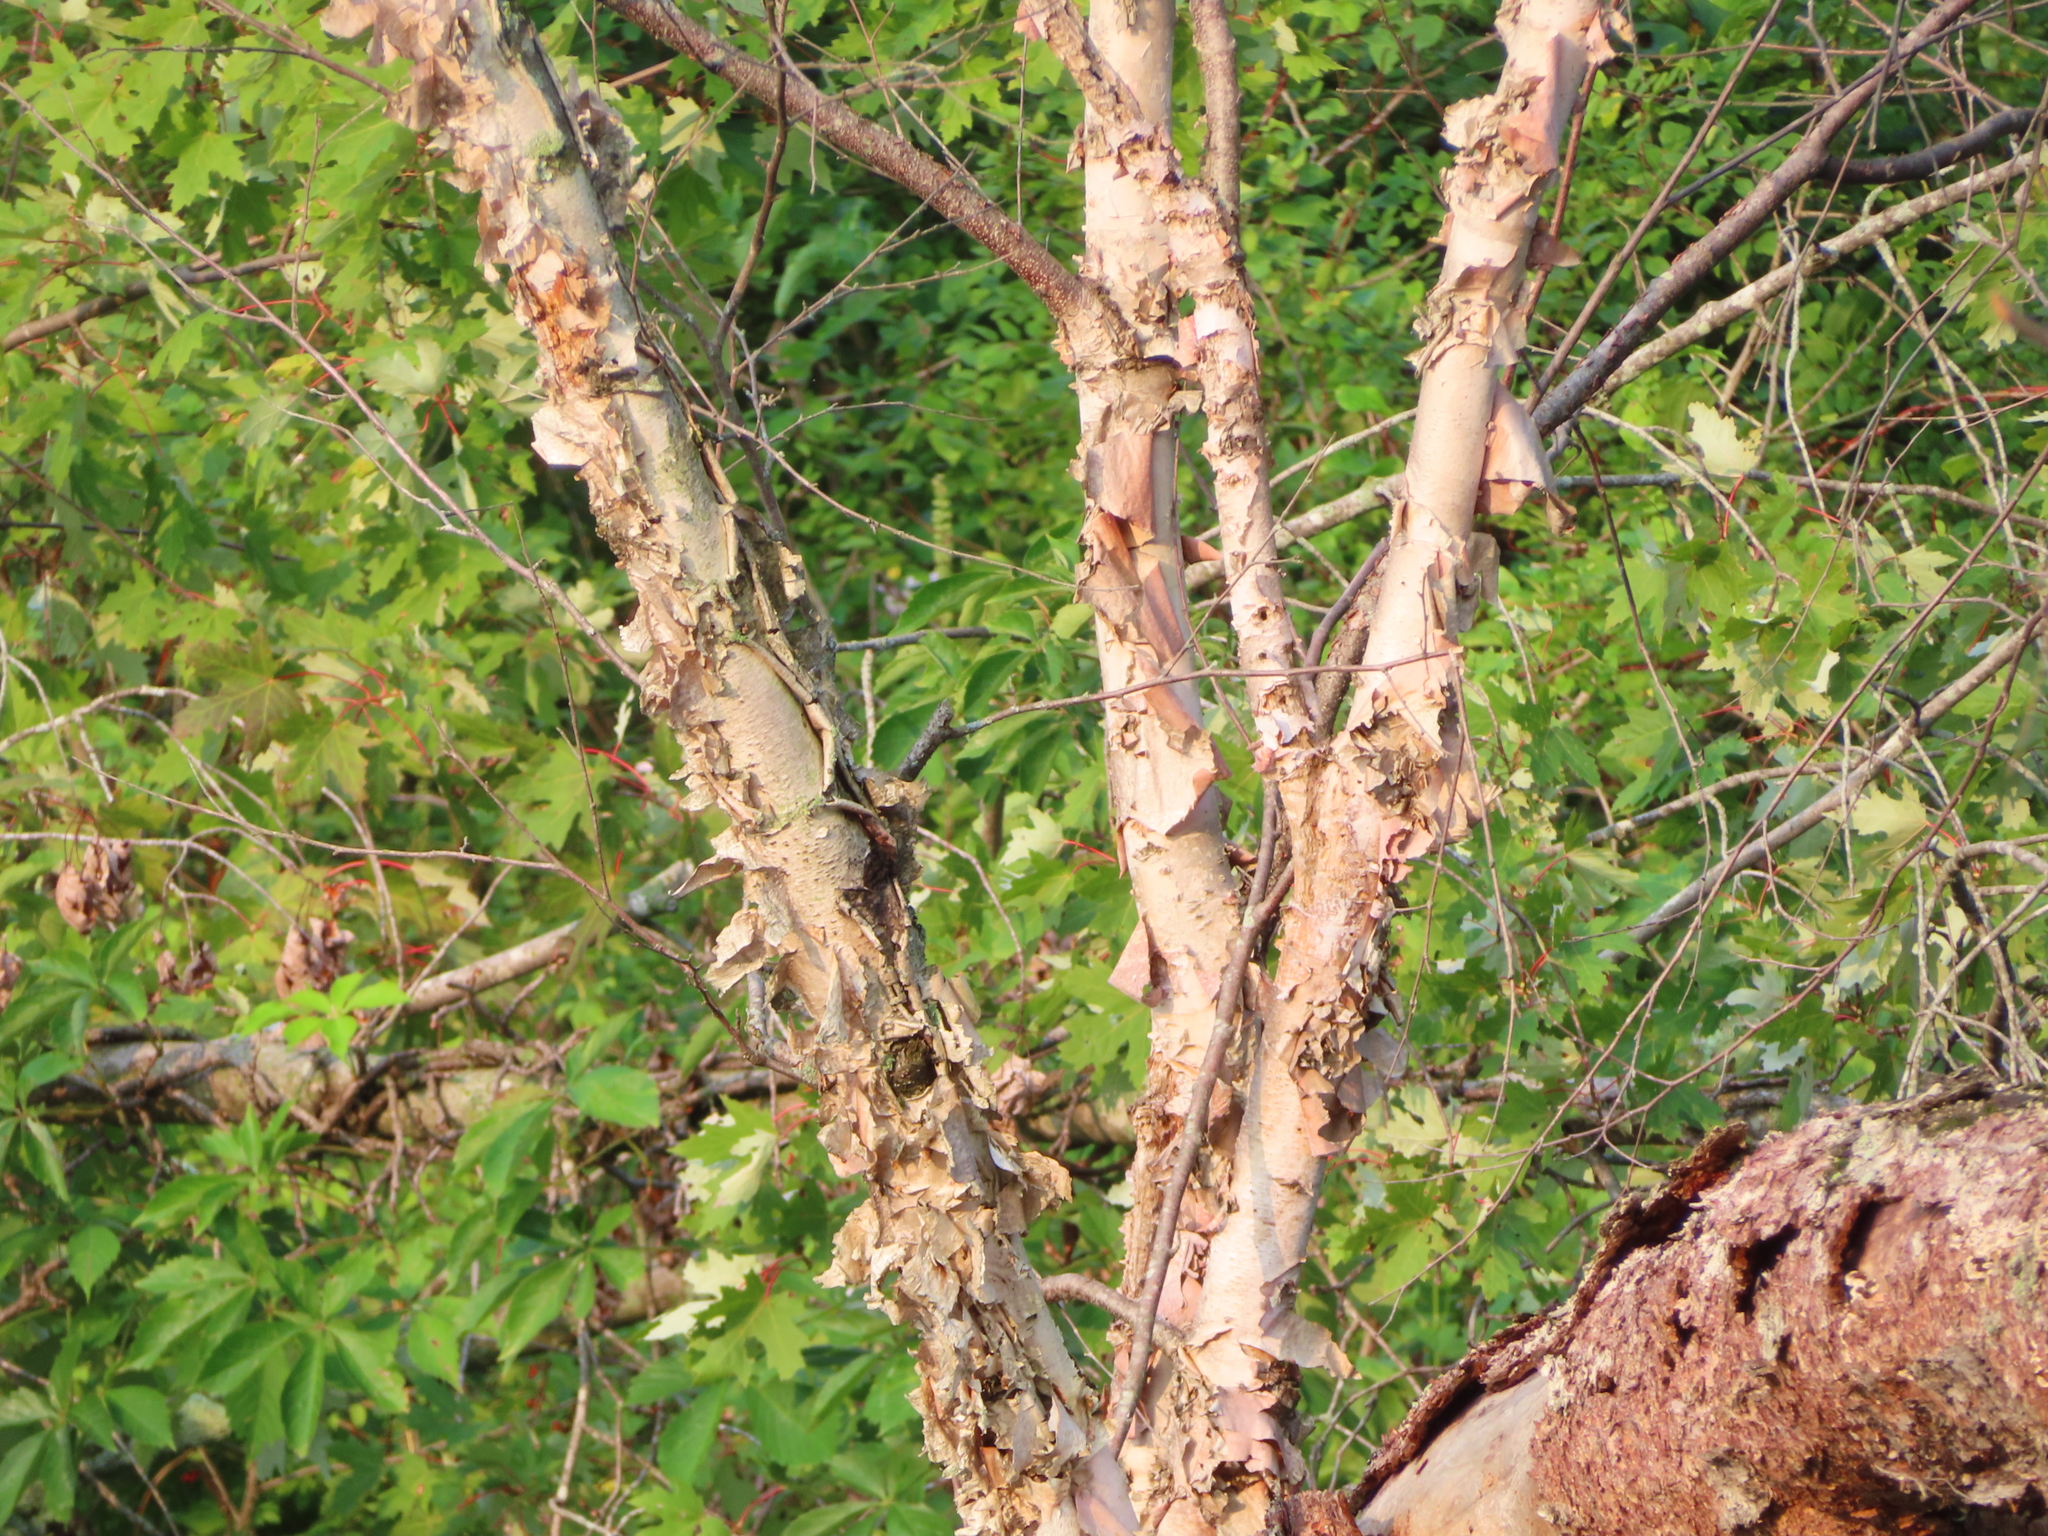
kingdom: Plantae
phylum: Tracheophyta
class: Magnoliopsida
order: Fagales
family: Betulaceae
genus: Betula
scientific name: Betula nigra
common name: Black birch
